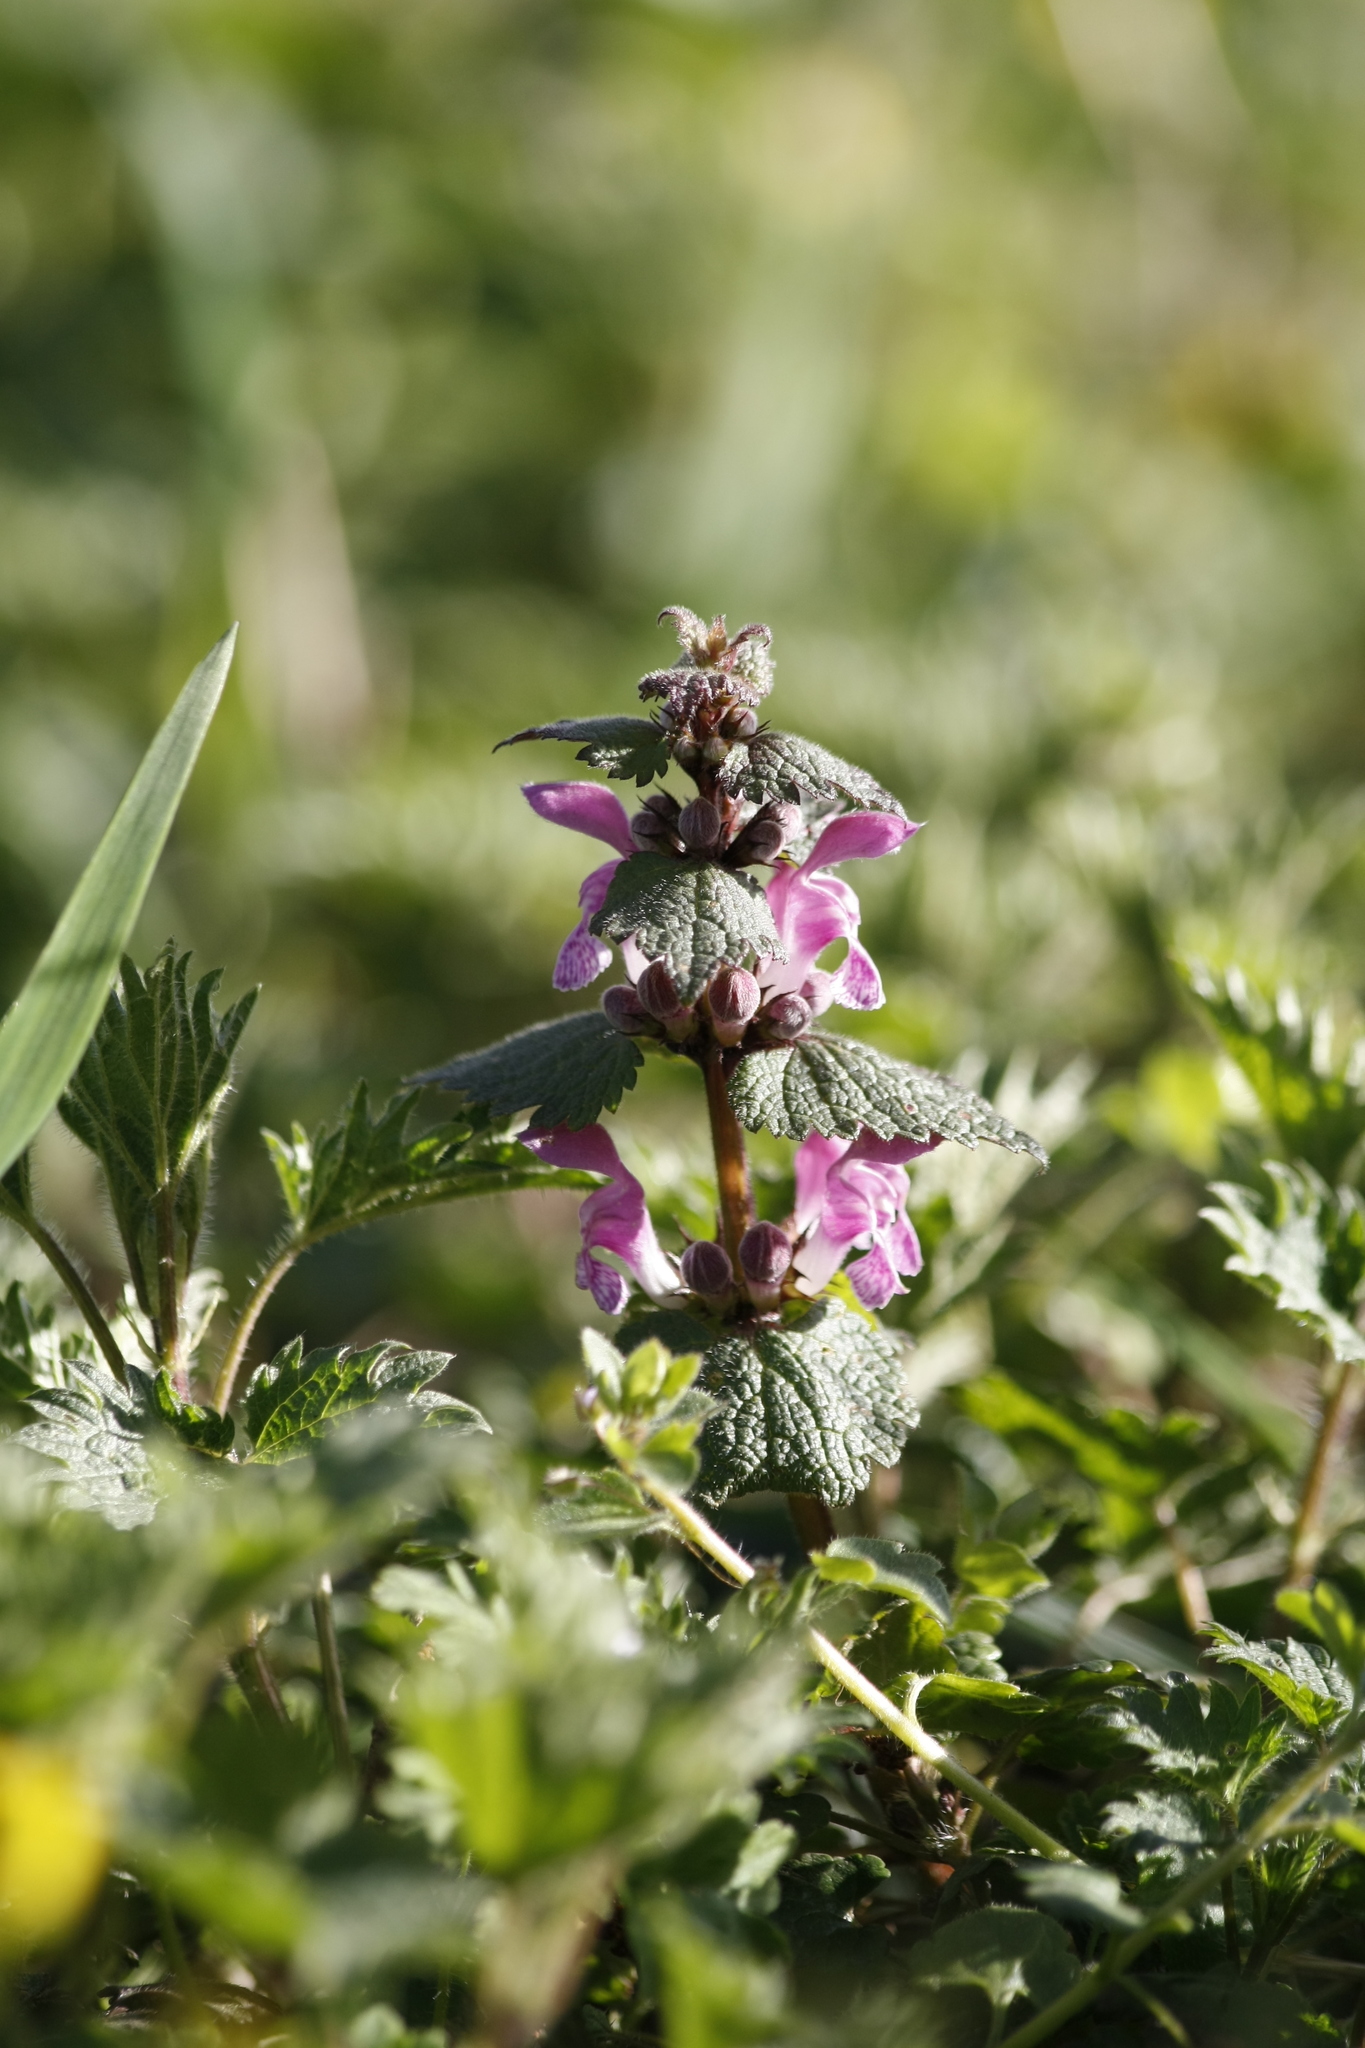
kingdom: Plantae
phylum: Tracheophyta
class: Magnoliopsida
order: Lamiales
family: Lamiaceae
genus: Lamium
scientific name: Lamium maculatum
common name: Spotted dead-nettle
